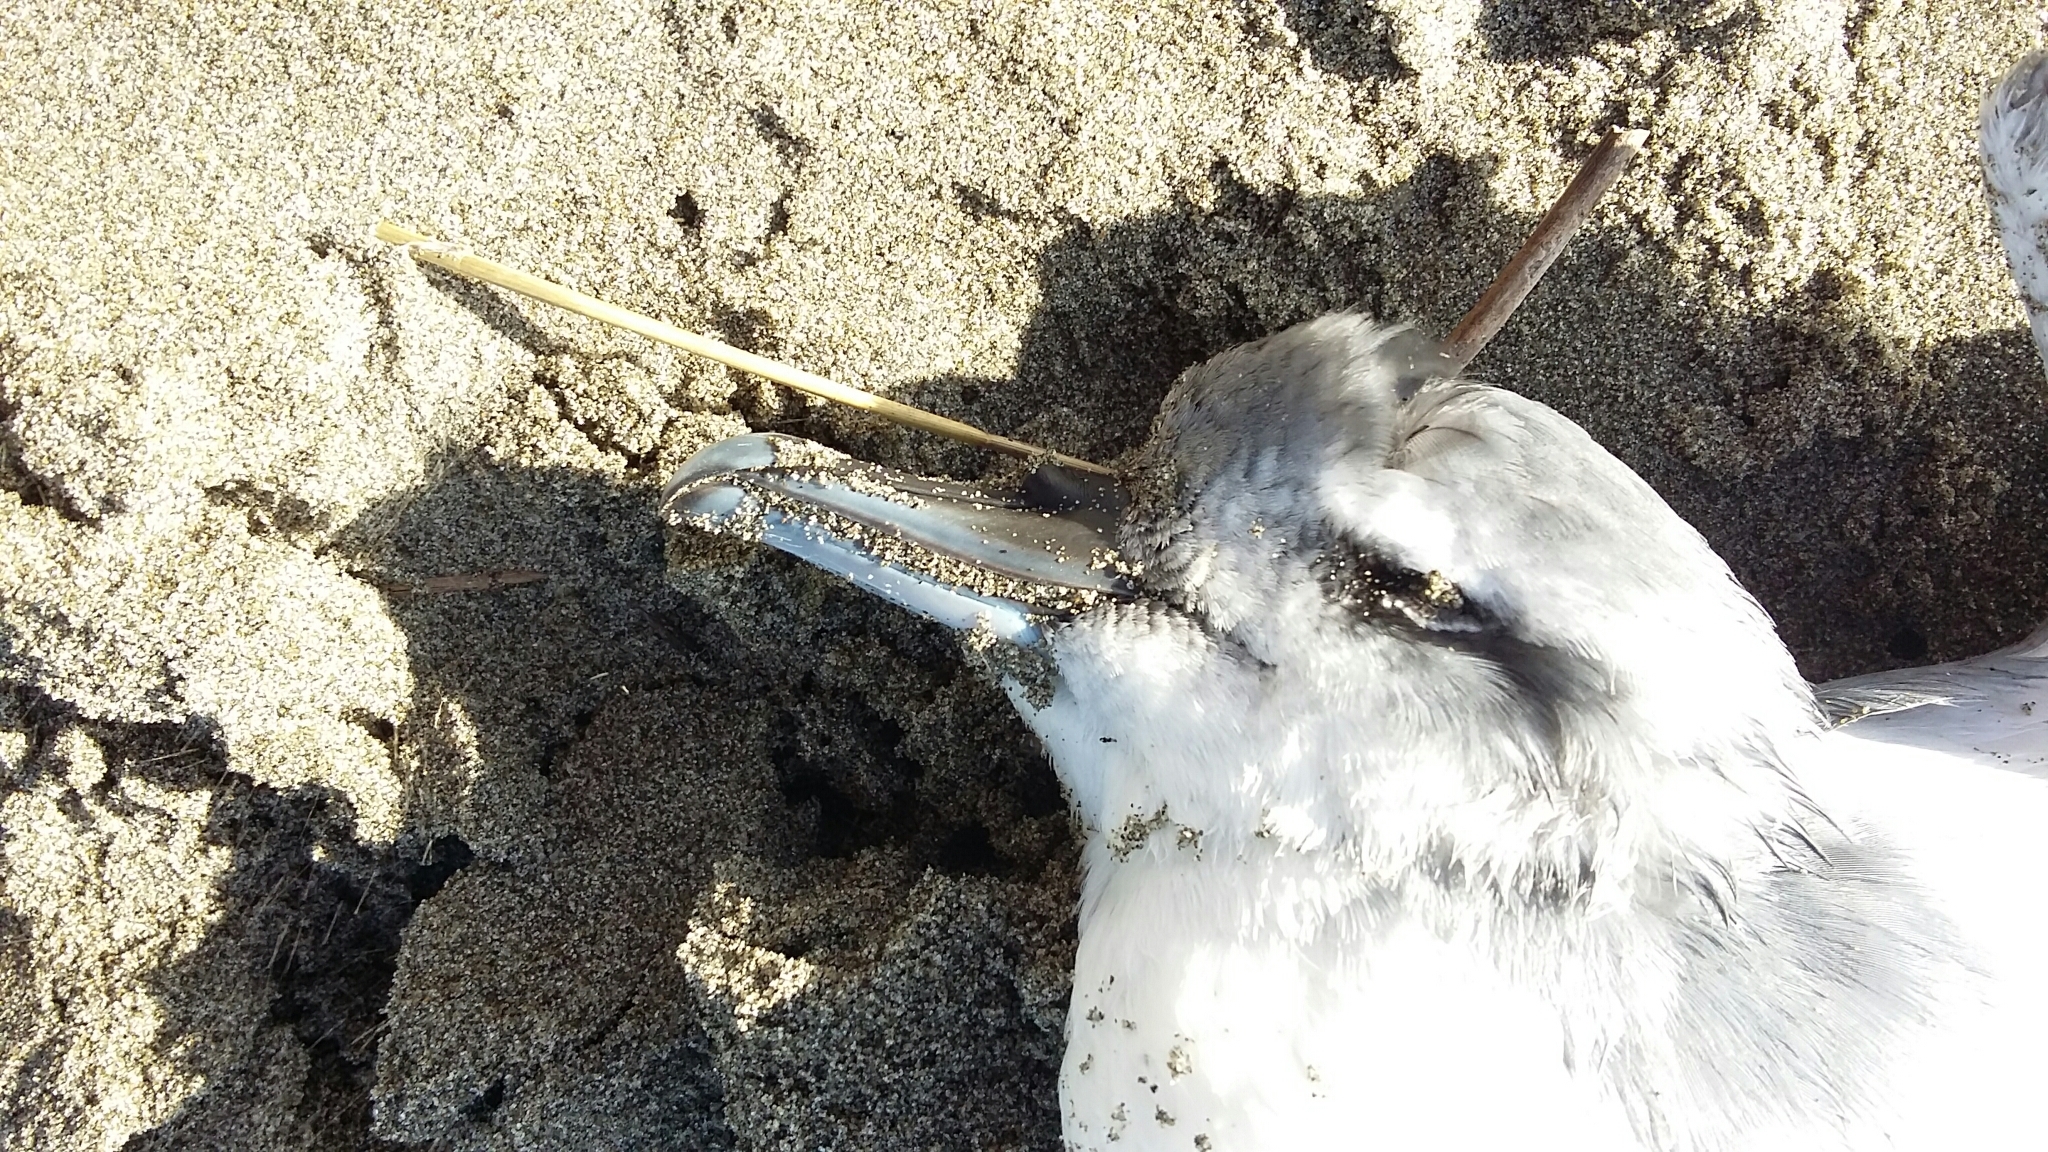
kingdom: Animalia
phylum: Chordata
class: Aves
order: Procellariiformes
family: Procellariidae
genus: Pachyptila
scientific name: Pachyptila turtur
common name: Fairy prion
